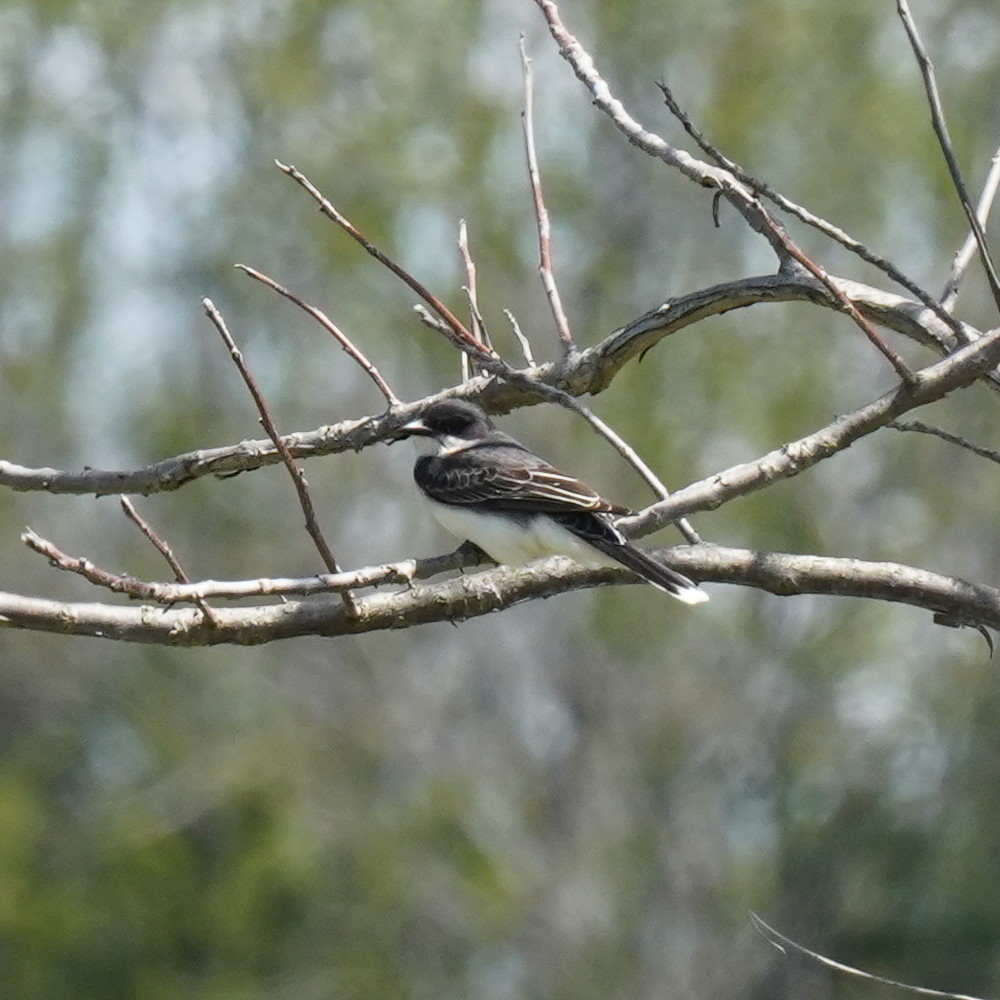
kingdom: Animalia
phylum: Chordata
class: Aves
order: Passeriformes
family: Tyrannidae
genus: Tyrannus
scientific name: Tyrannus tyrannus
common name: Eastern kingbird
